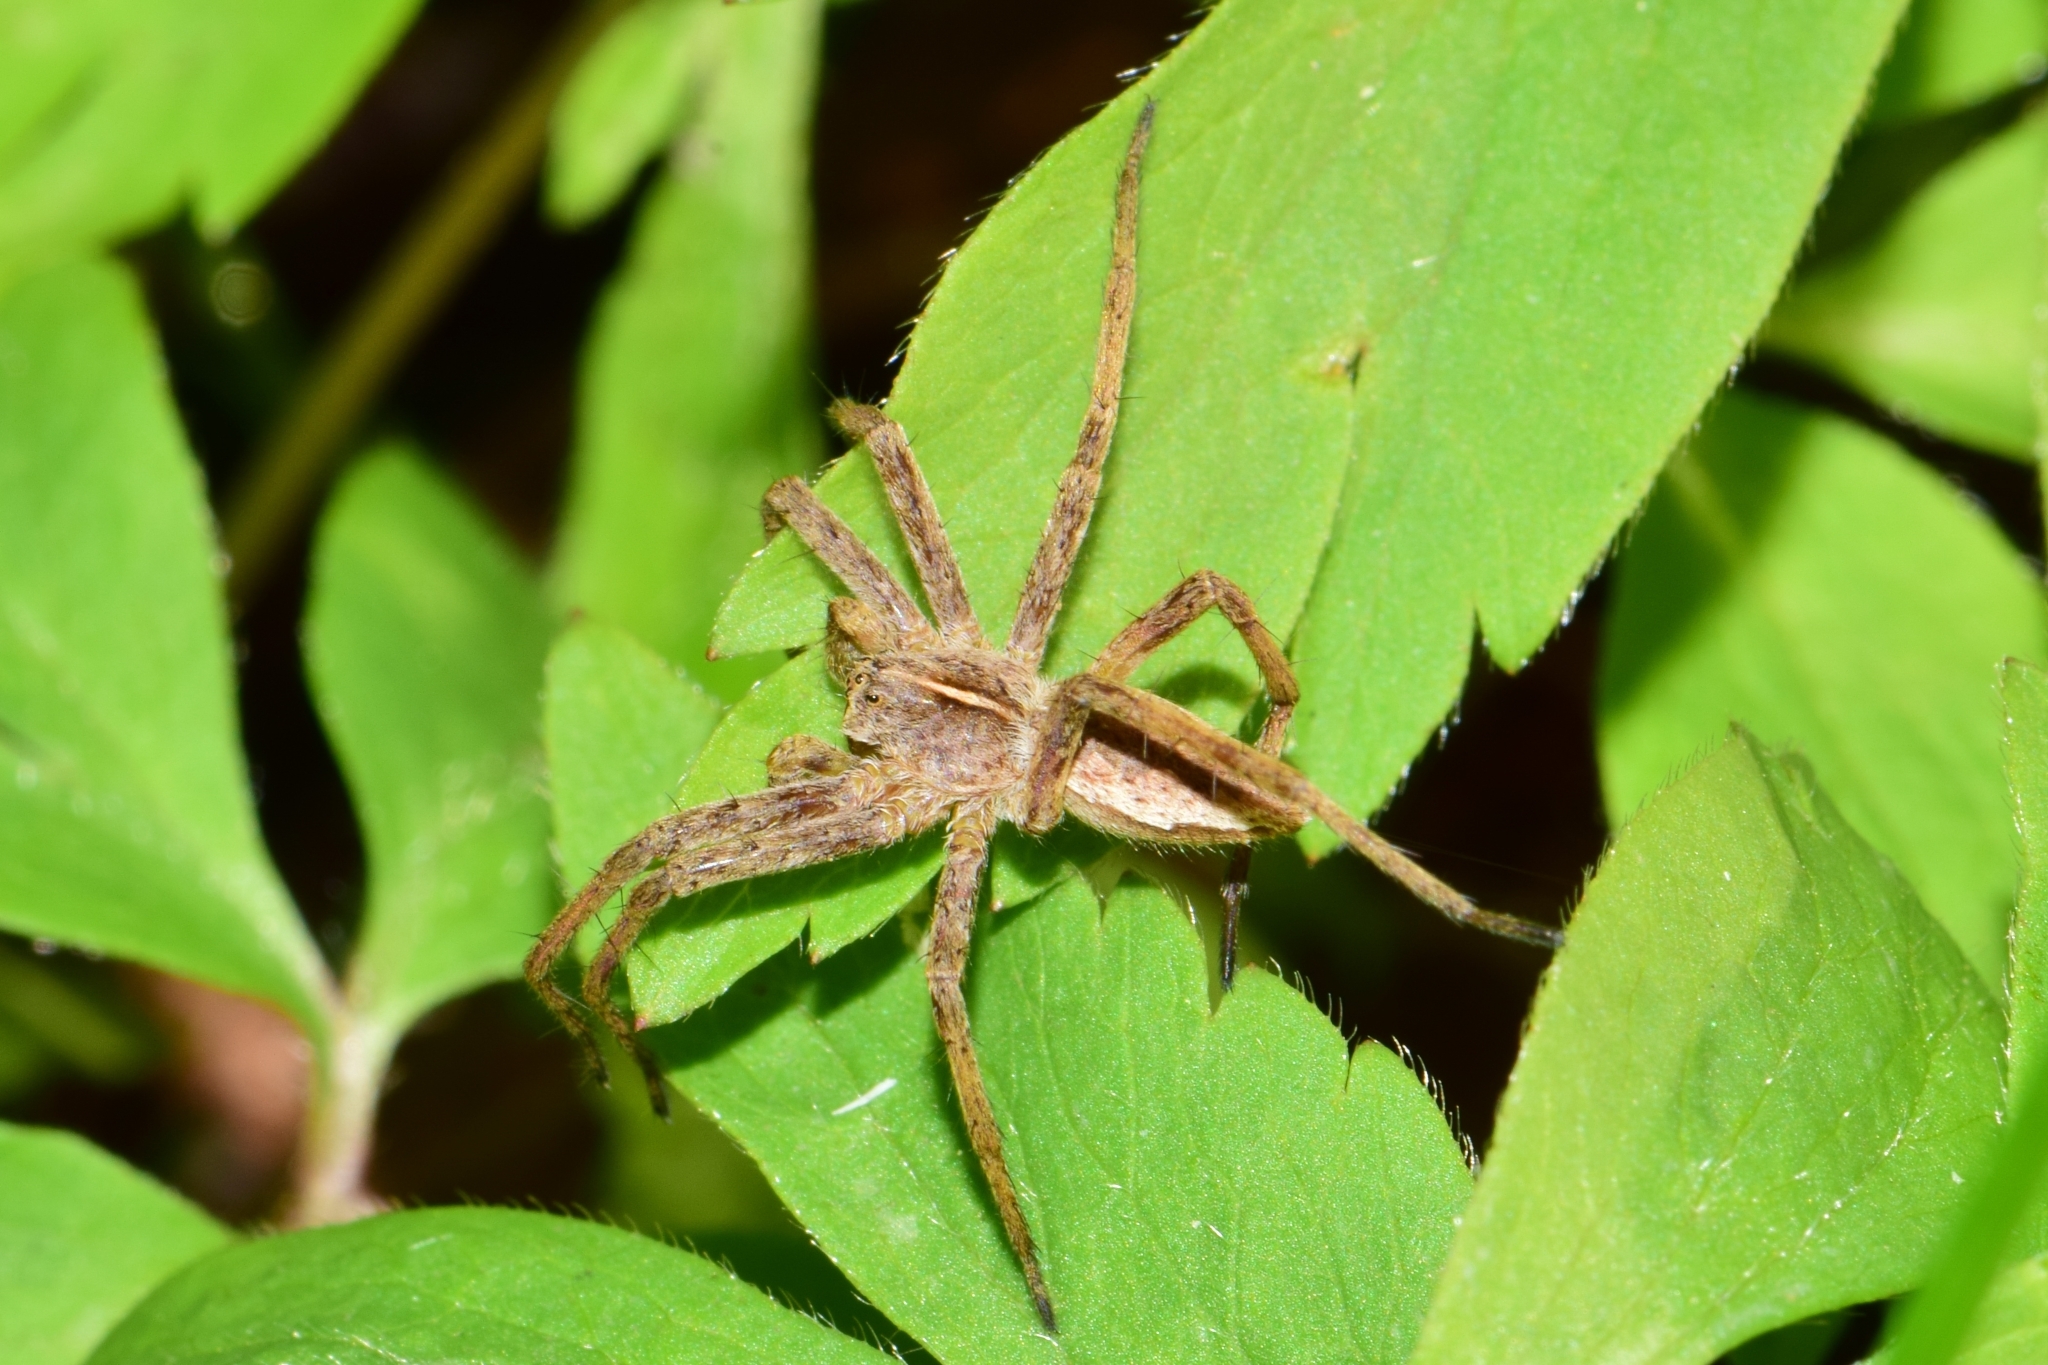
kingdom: Animalia
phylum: Arthropoda
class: Arachnida
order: Araneae
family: Pisauridae
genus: Pisaura
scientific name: Pisaura mirabilis
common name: Tent spider
